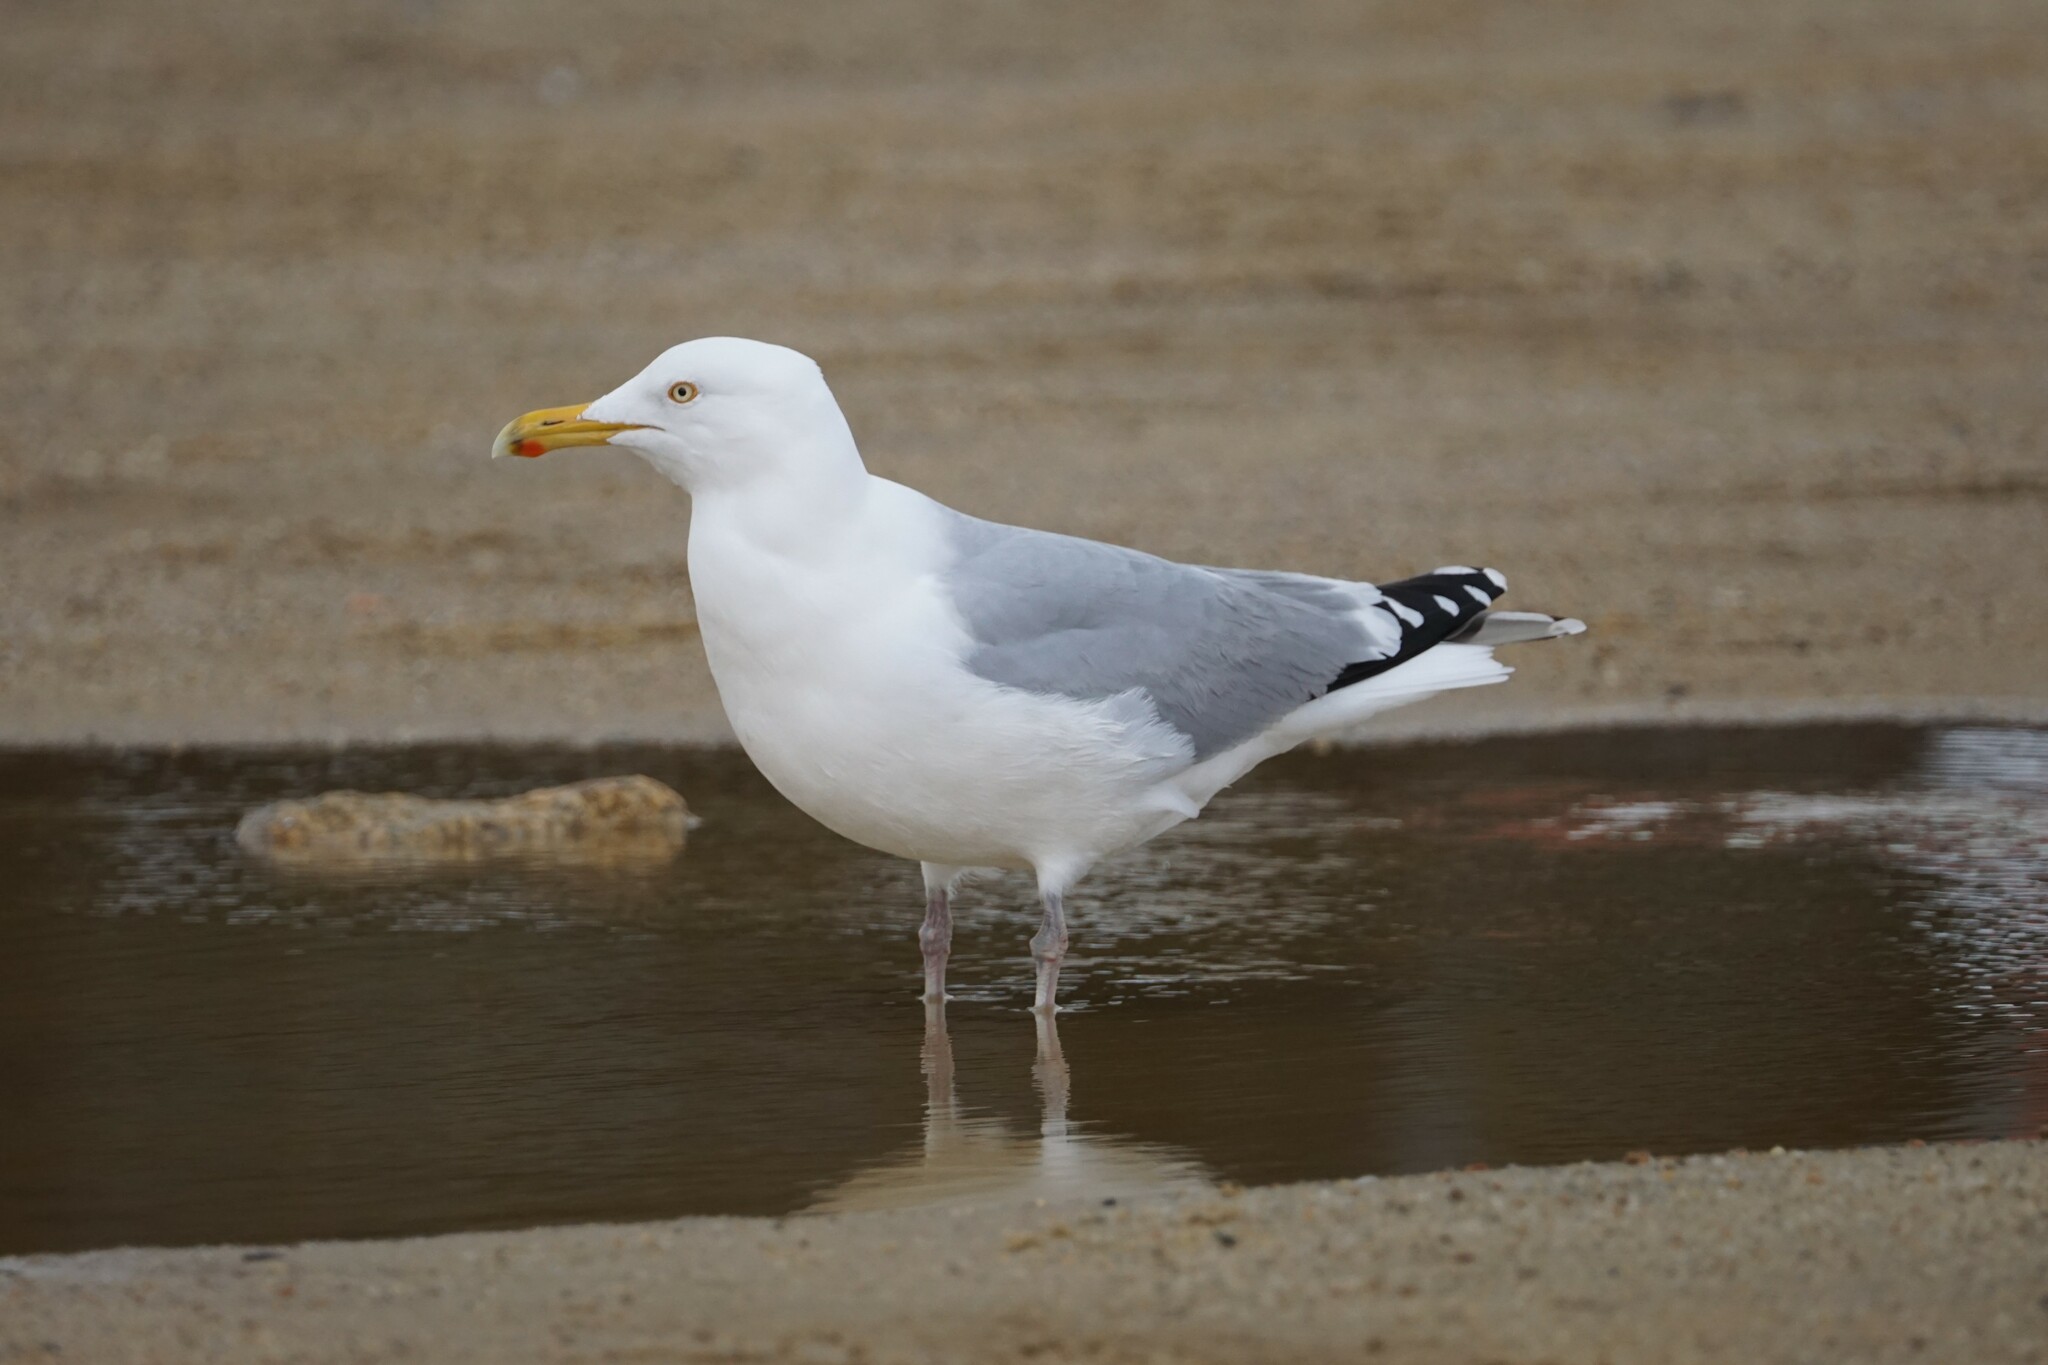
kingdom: Animalia
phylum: Chordata
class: Aves
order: Charadriiformes
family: Laridae
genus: Larus
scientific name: Larus argentatus
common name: Herring gull
